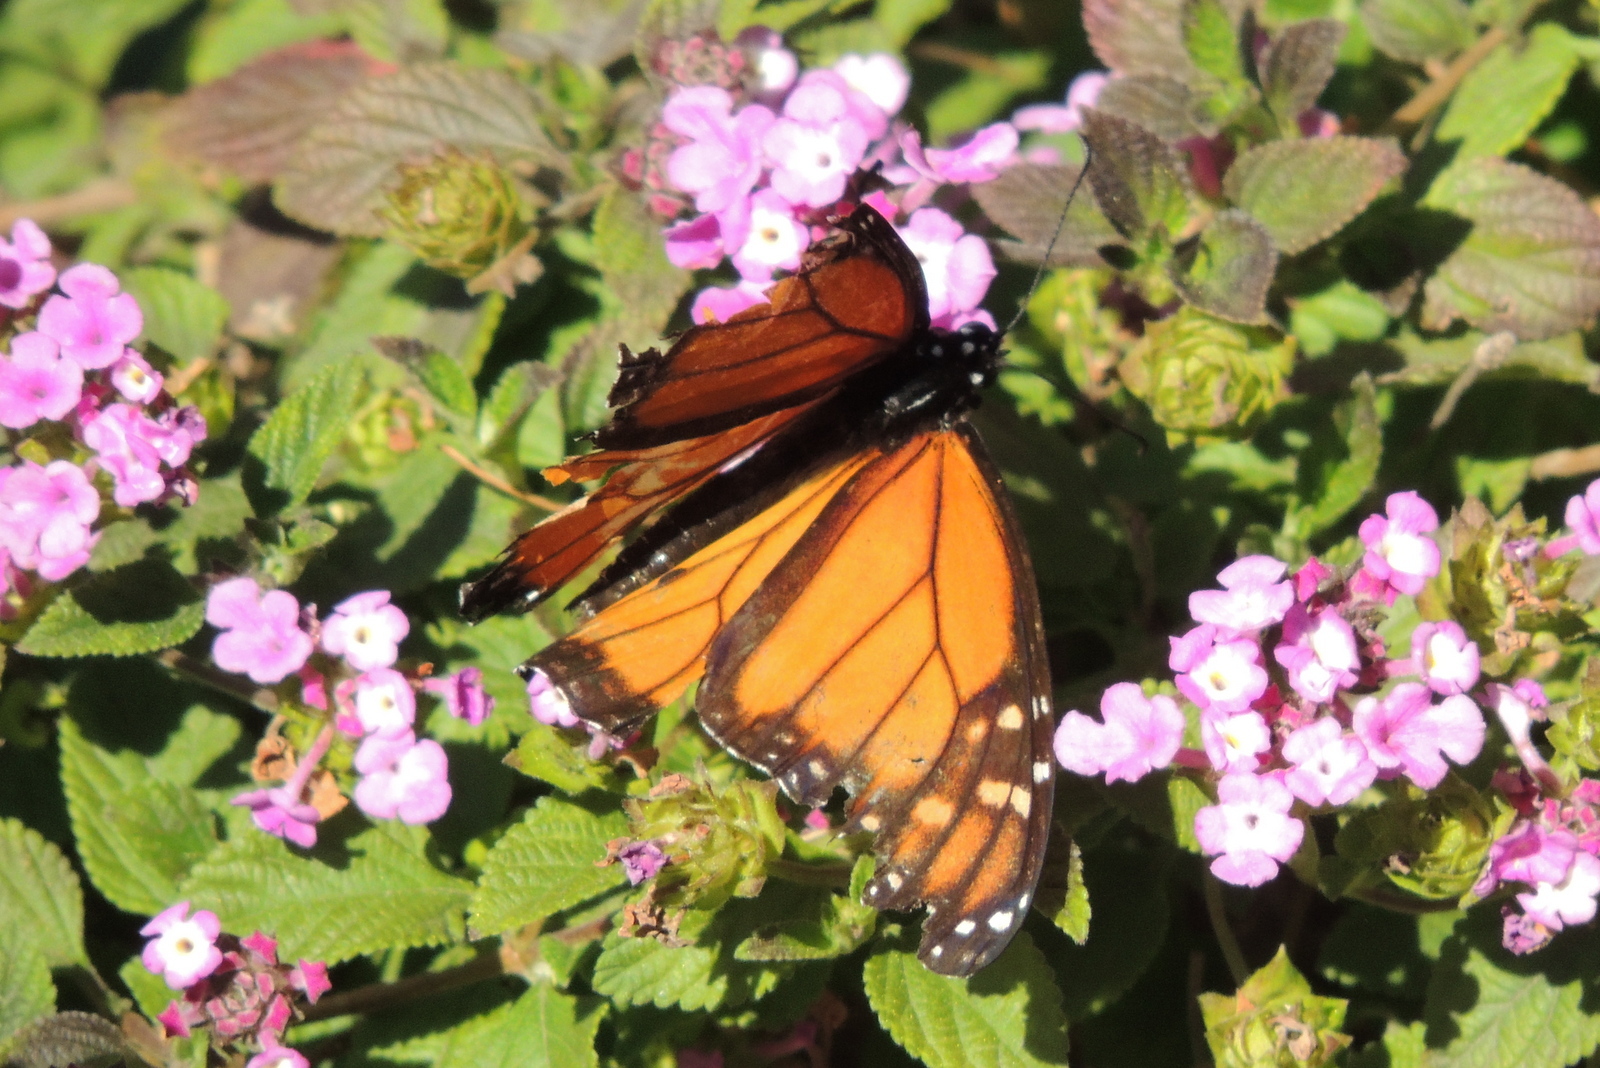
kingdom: Animalia
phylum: Arthropoda
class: Insecta
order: Lepidoptera
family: Nymphalidae
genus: Danaus
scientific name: Danaus plexippus
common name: Monarch
